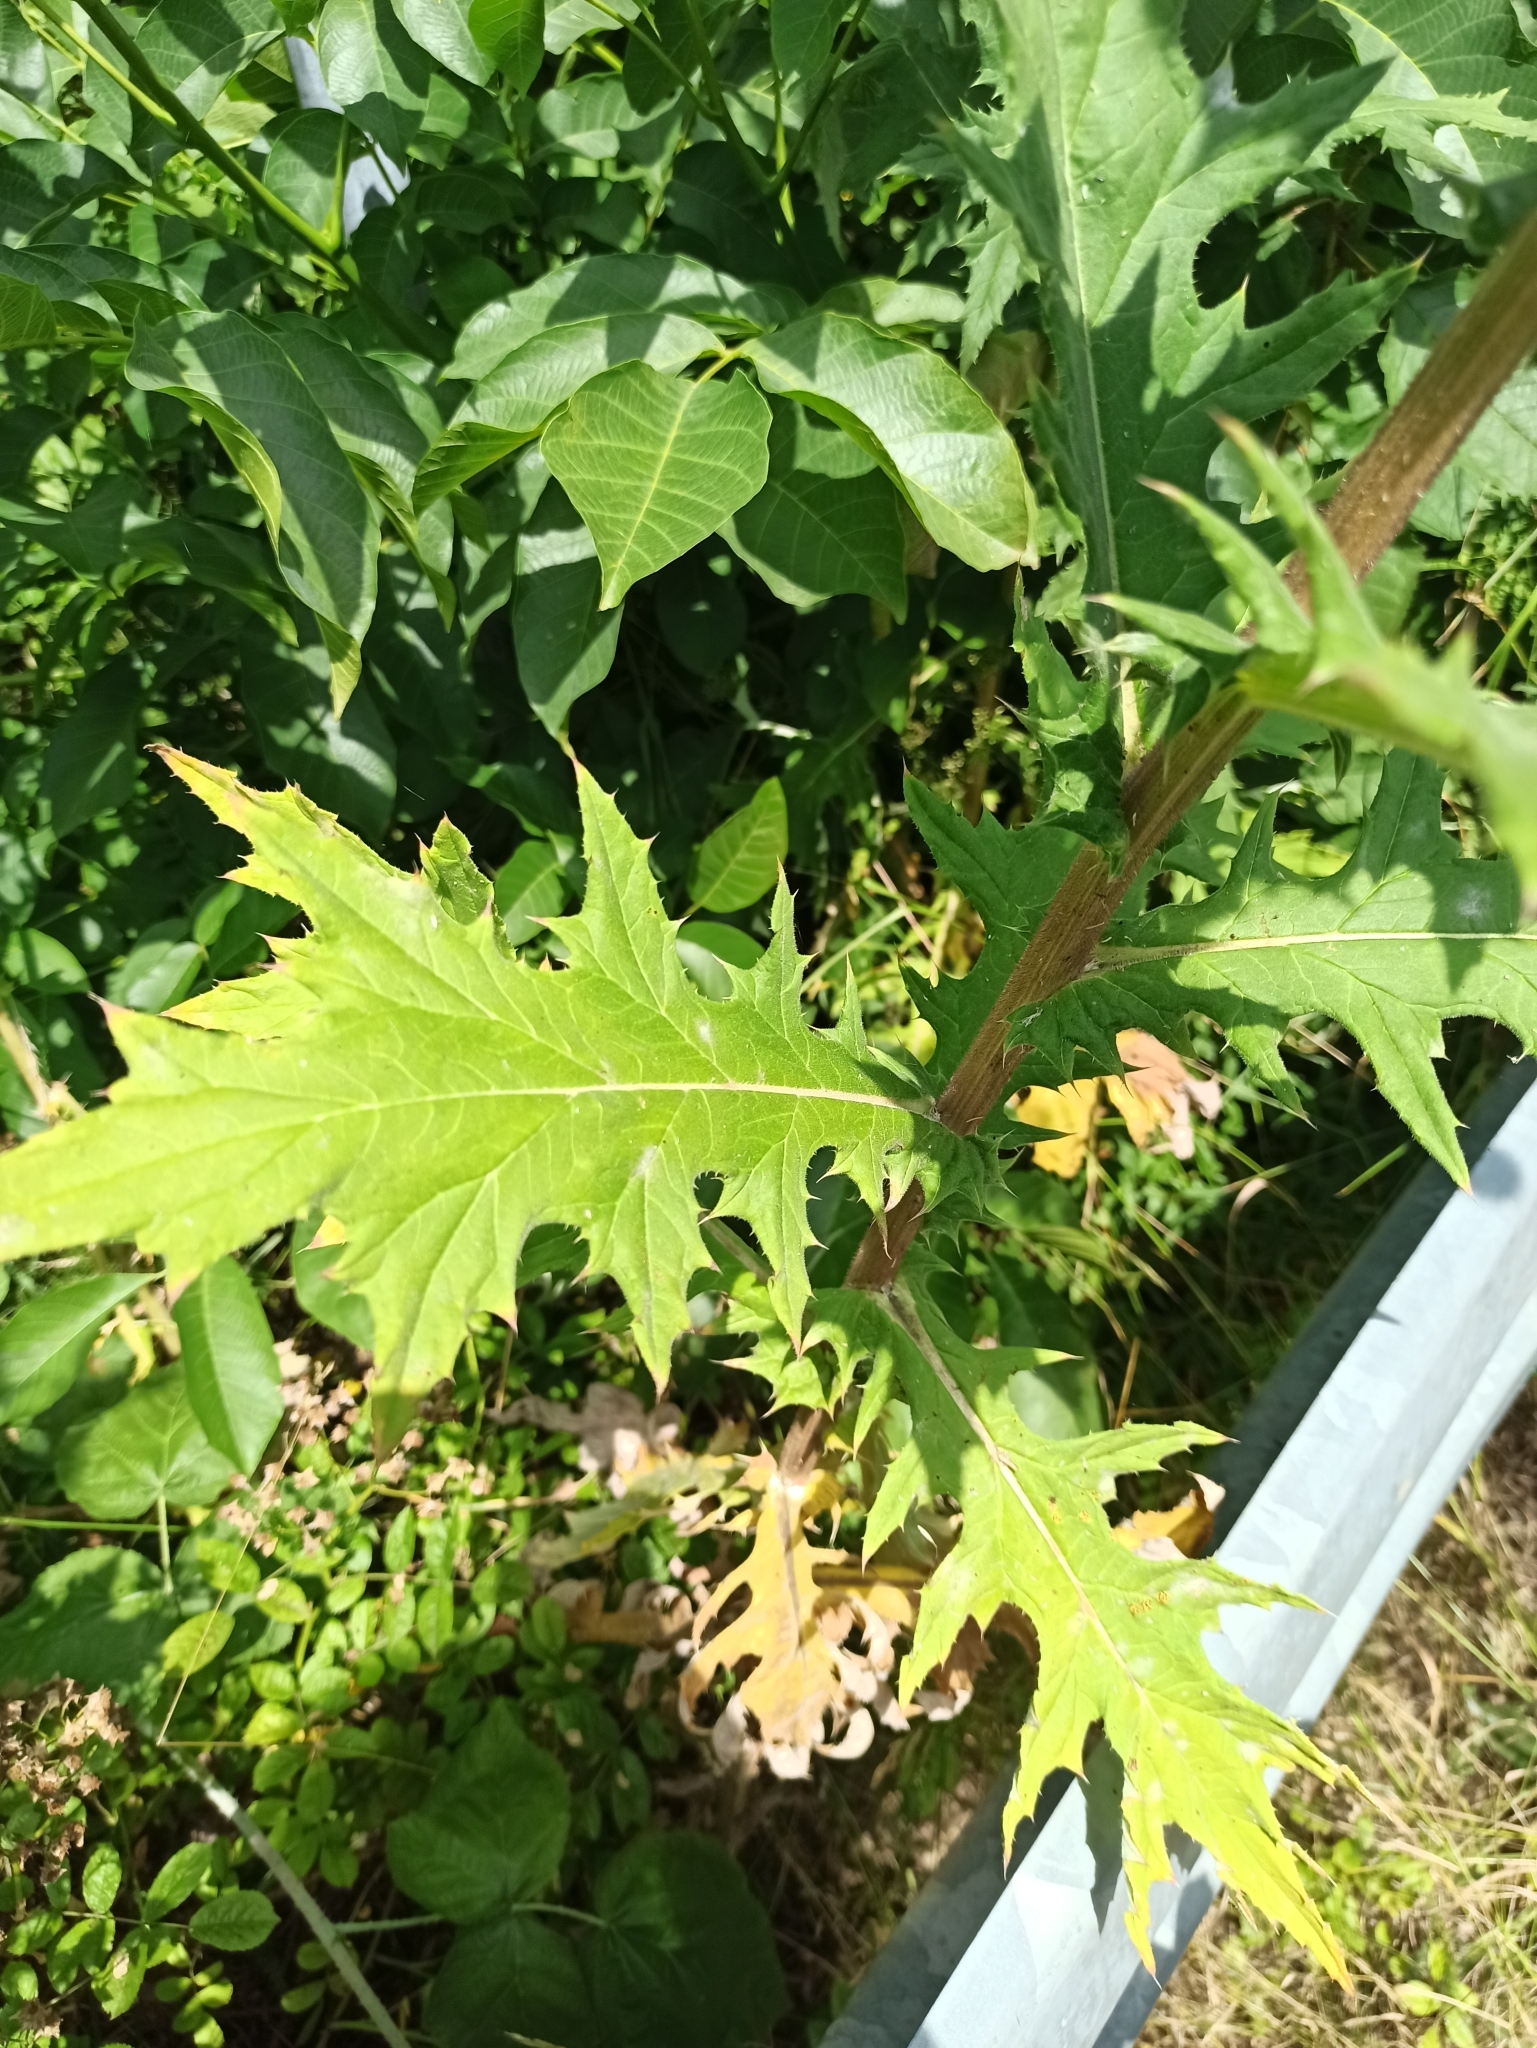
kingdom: Plantae
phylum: Tracheophyta
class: Magnoliopsida
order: Asterales
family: Asteraceae
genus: Echinops
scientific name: Echinops sphaerocephalus
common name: Glandular globe-thistle
